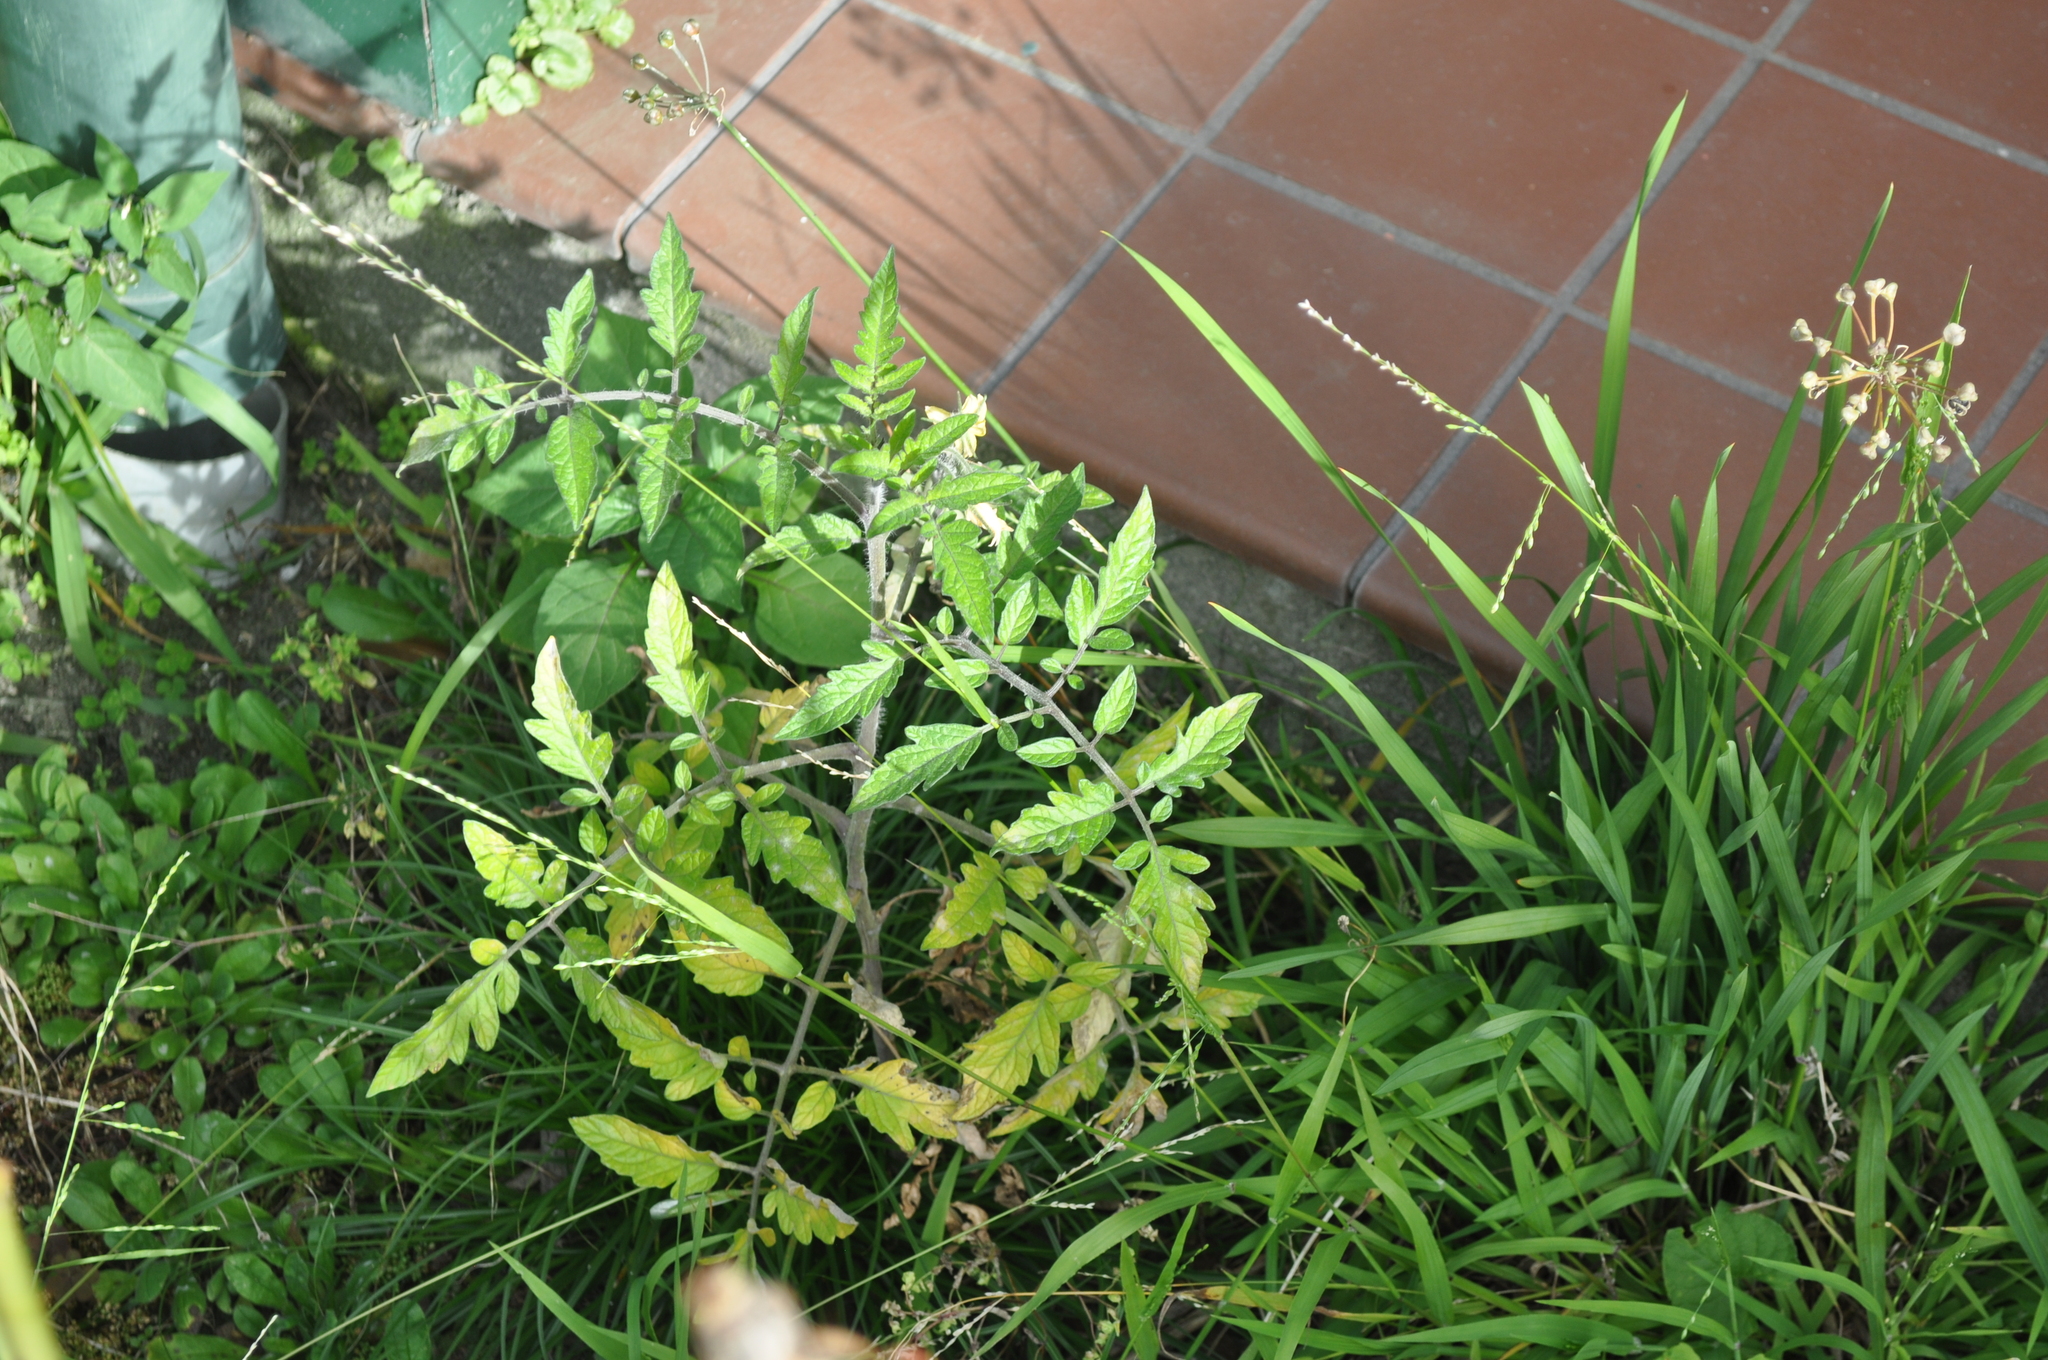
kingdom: Plantae
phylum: Tracheophyta
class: Magnoliopsida
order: Solanales
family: Solanaceae
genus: Solanum
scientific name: Solanum lycopersicum
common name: Garden tomato
